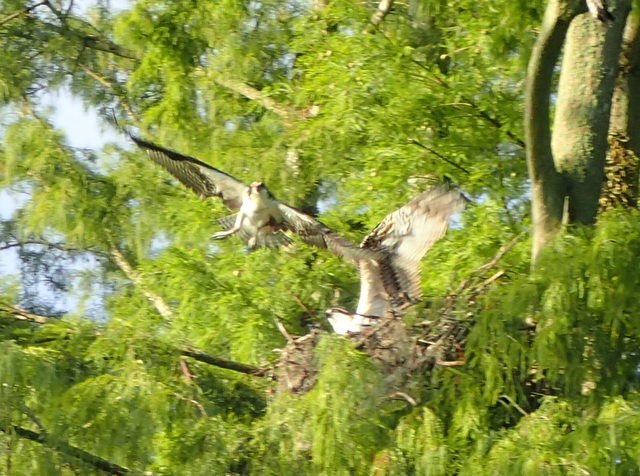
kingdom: Animalia
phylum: Chordata
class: Aves
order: Accipitriformes
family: Pandionidae
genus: Pandion
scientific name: Pandion haliaetus
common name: Osprey
